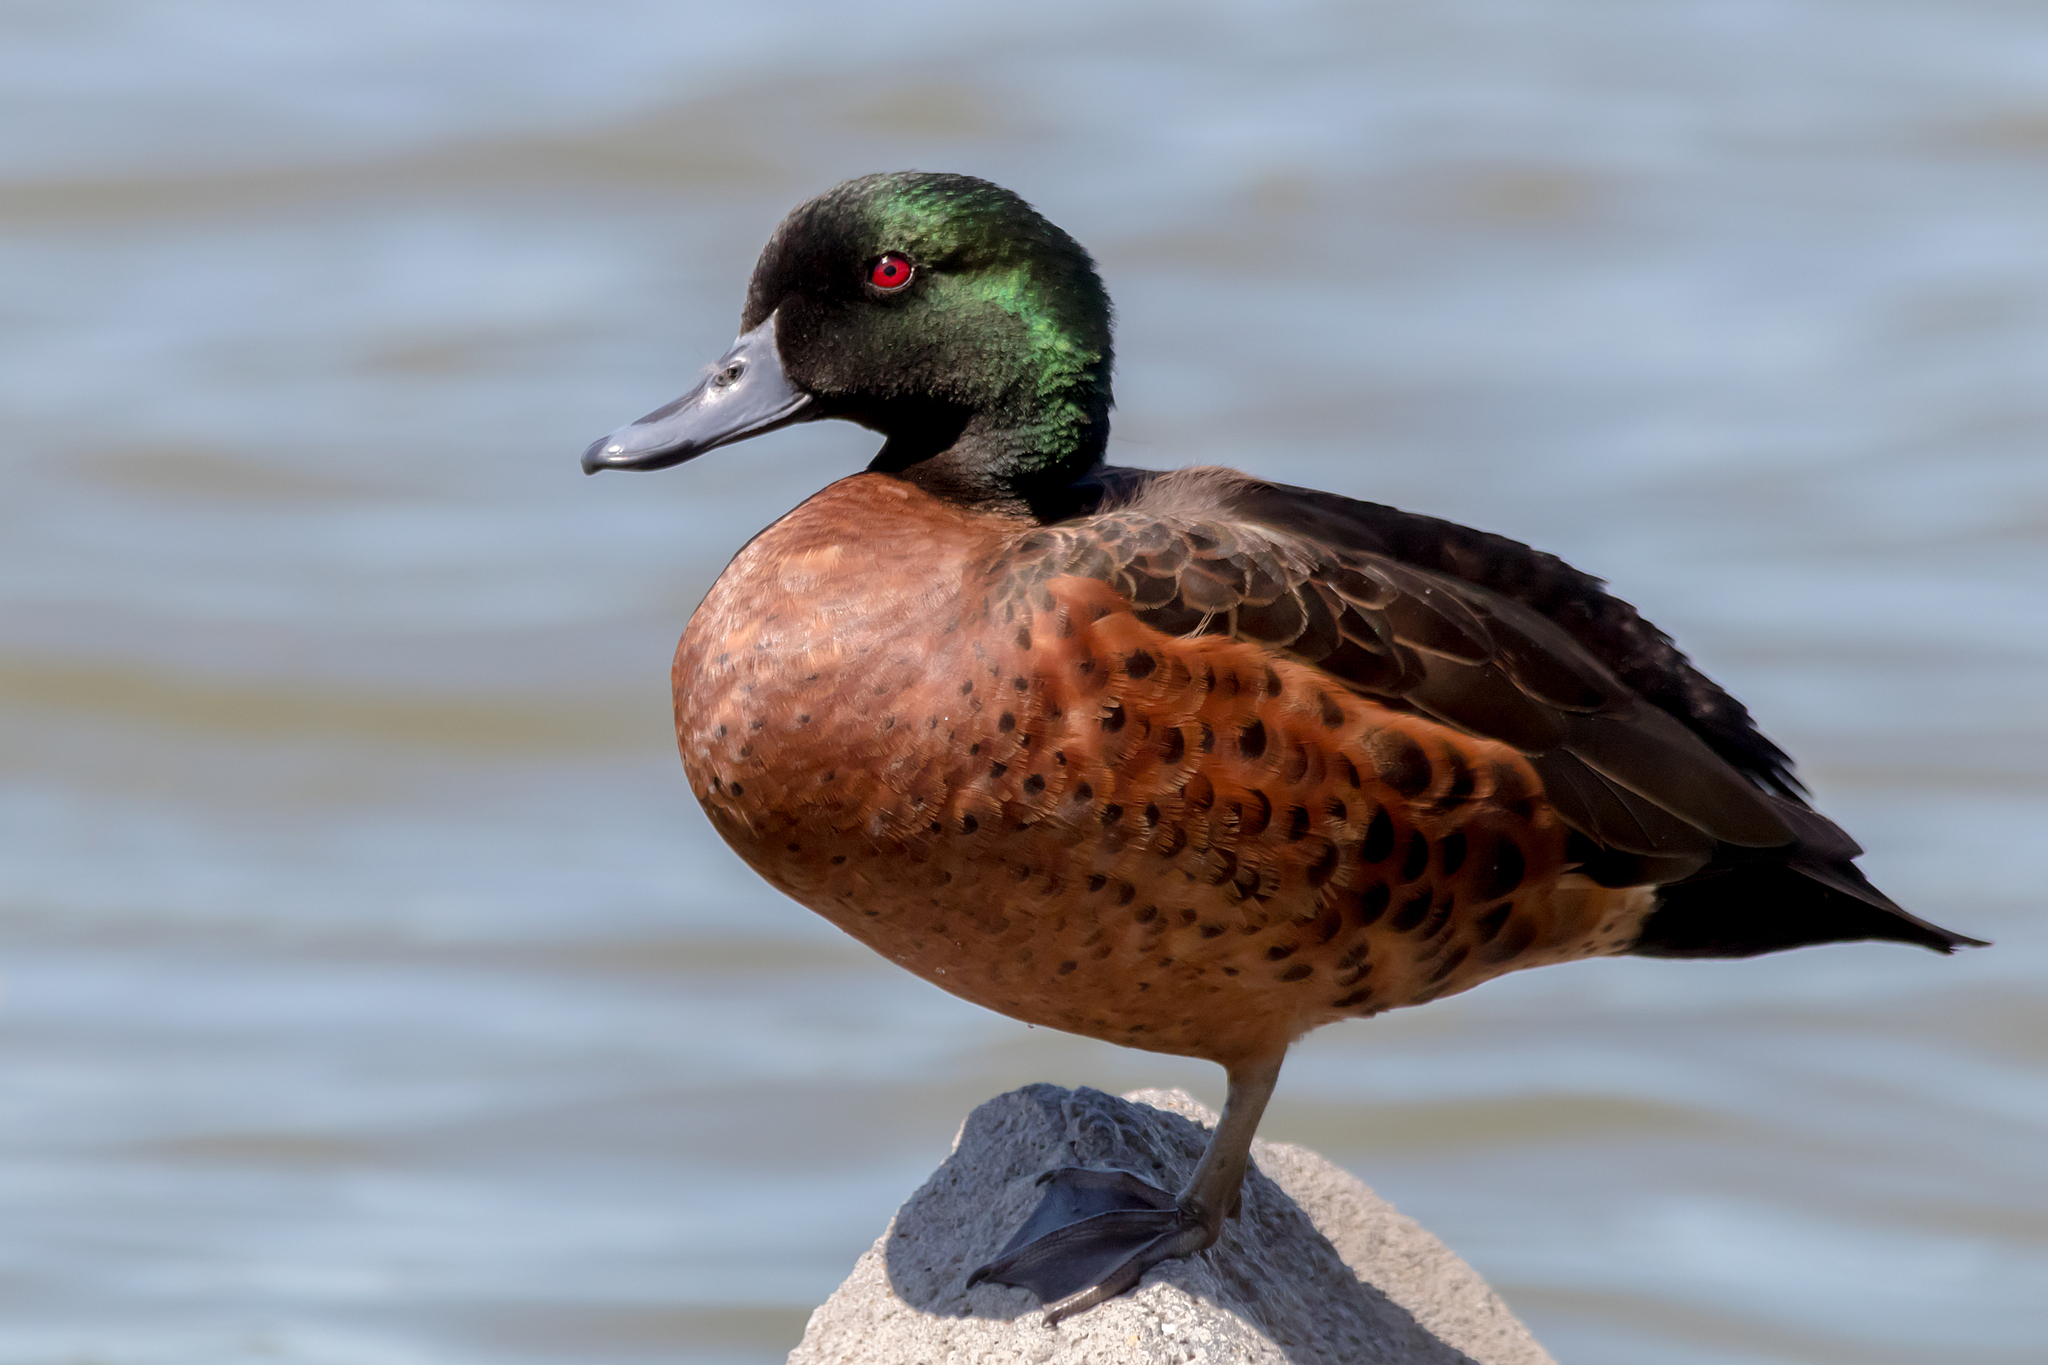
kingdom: Animalia
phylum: Chordata
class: Aves
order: Anseriformes
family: Anatidae
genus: Anas
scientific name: Anas castanea
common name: Chestnut teal
